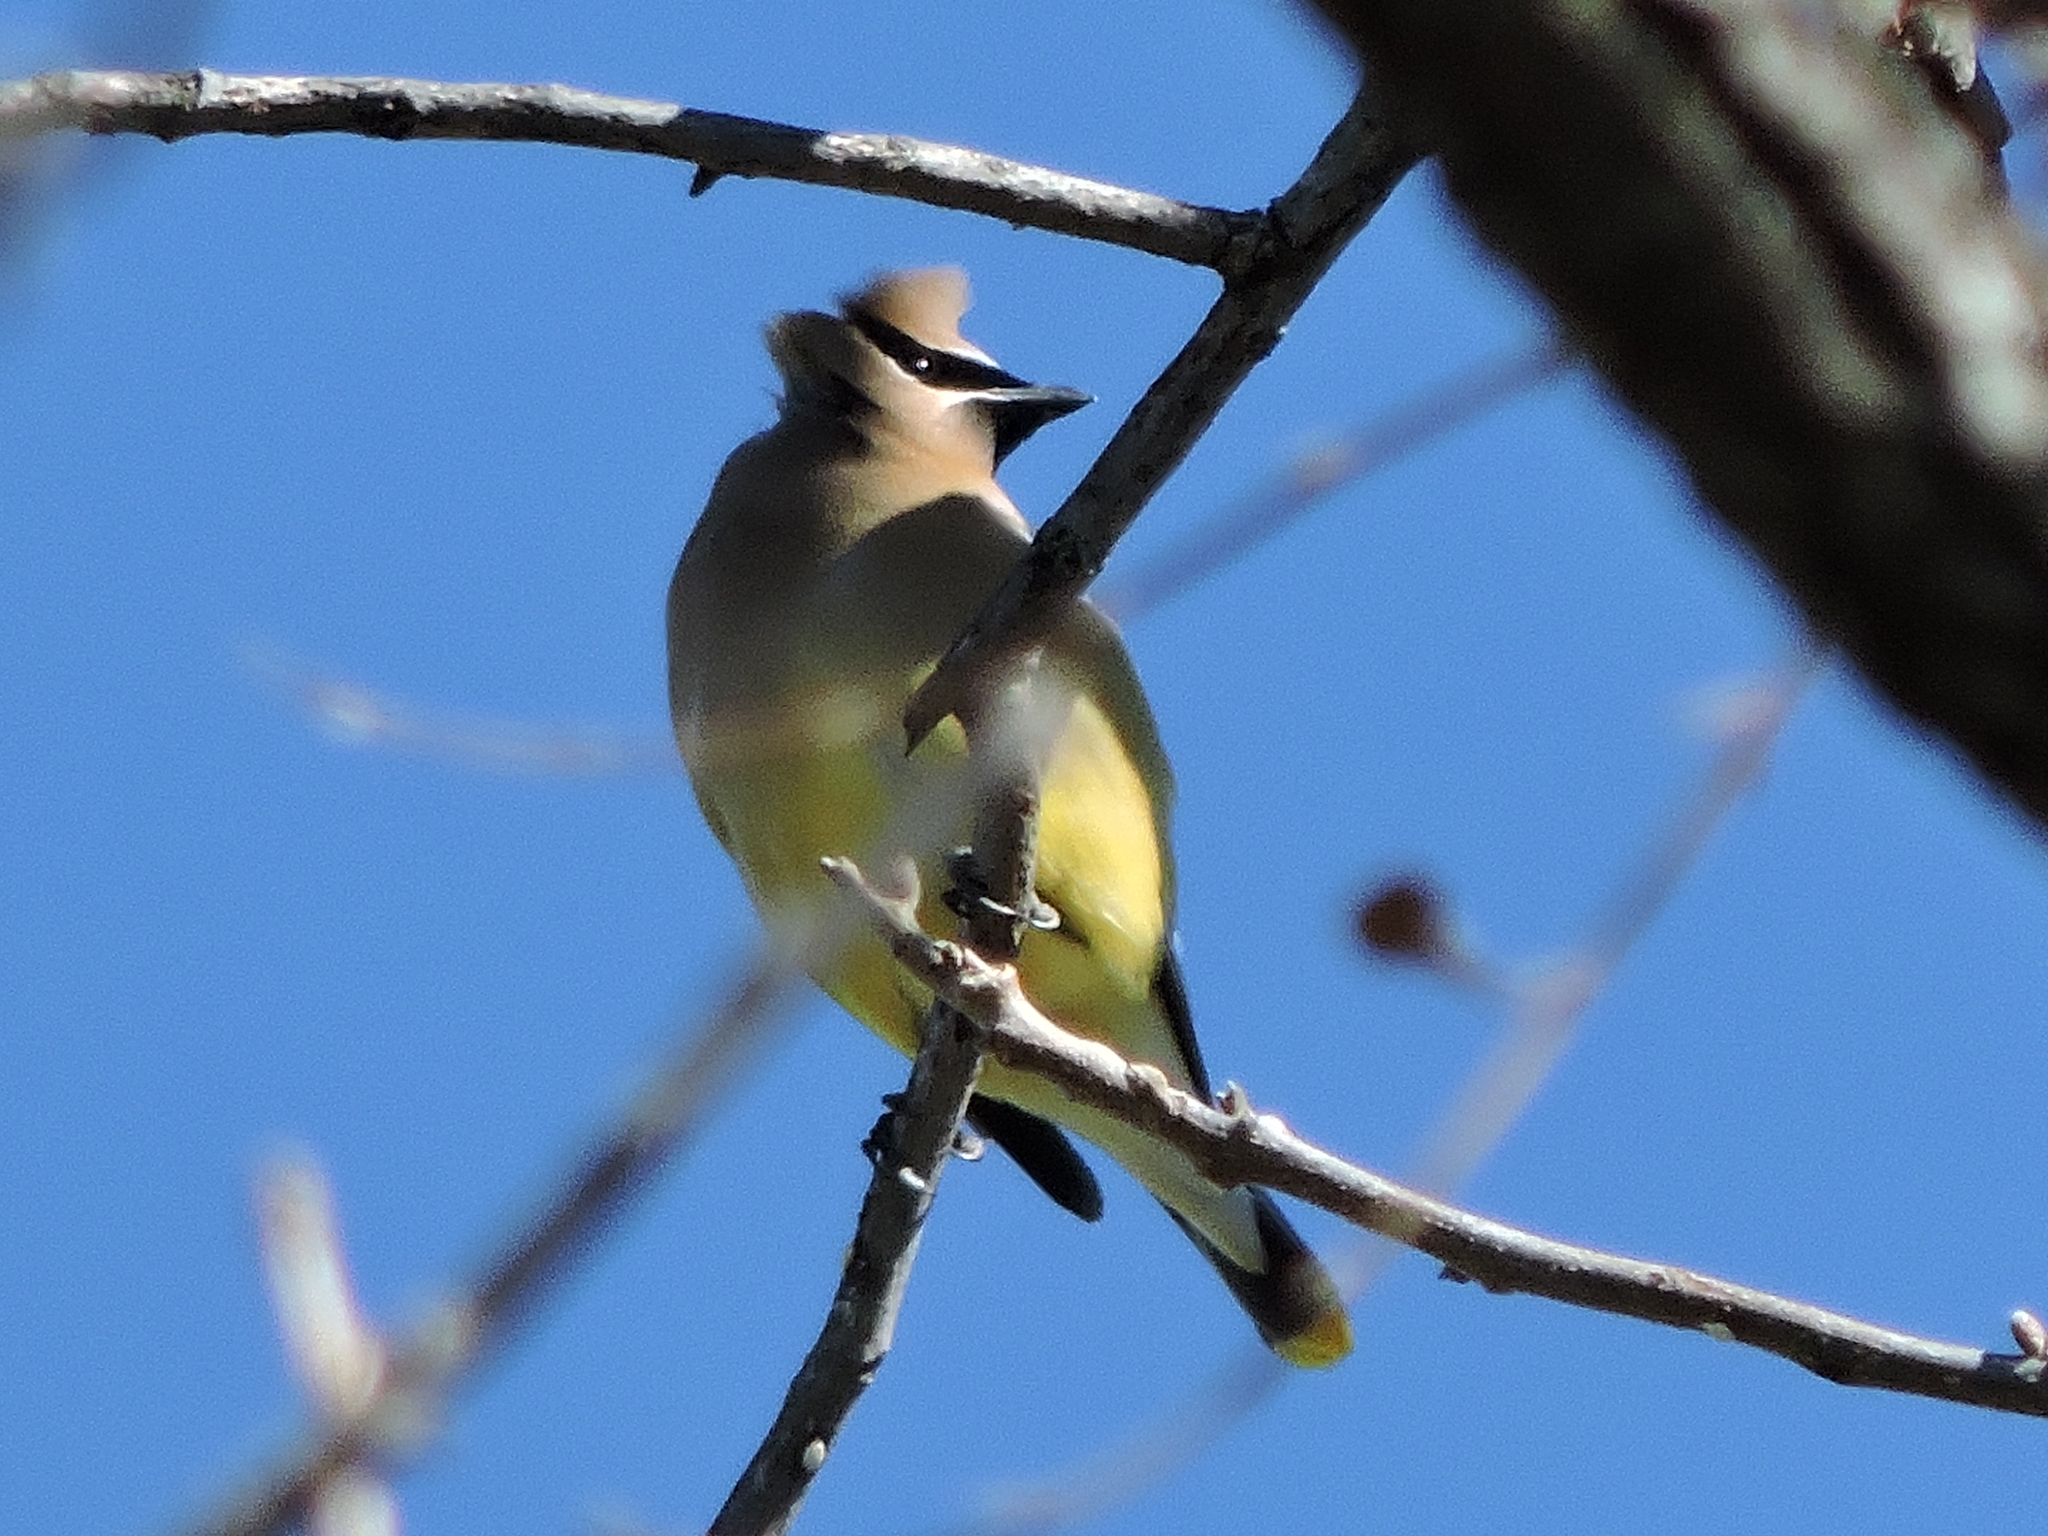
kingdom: Animalia
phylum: Chordata
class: Aves
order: Passeriformes
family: Bombycillidae
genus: Bombycilla
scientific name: Bombycilla cedrorum
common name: Cedar waxwing
